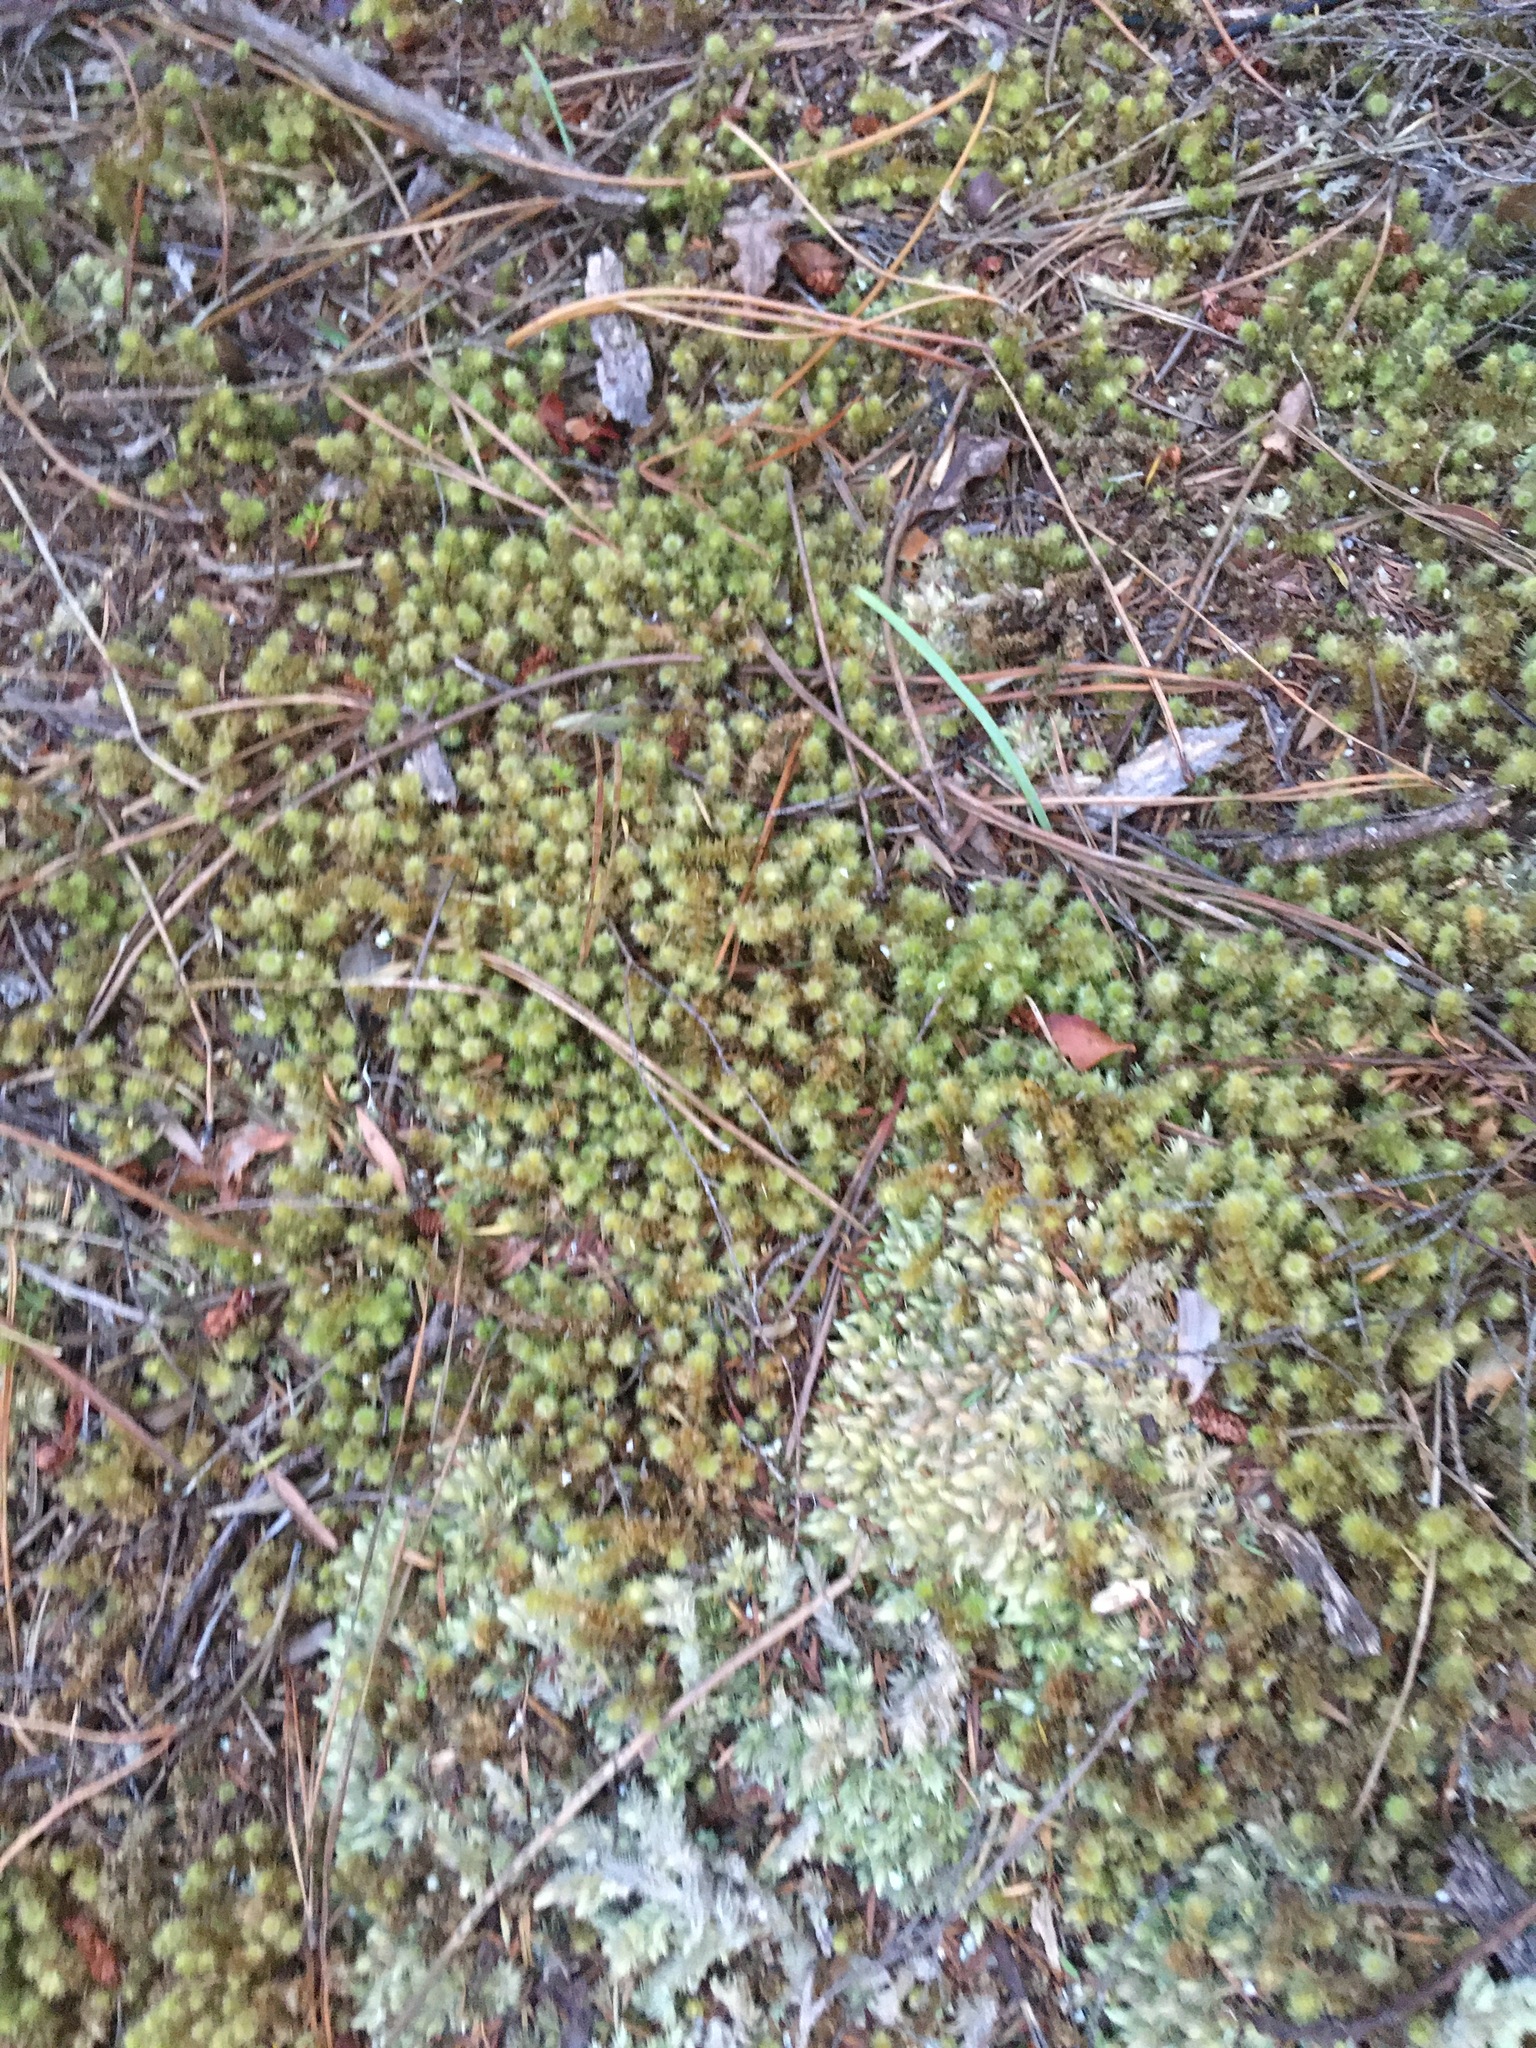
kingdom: Plantae
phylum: Bryophyta
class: Bryopsida
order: Ptychomniales
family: Ptychomniaceae
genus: Ptychomnion
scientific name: Ptychomnion aciculare
